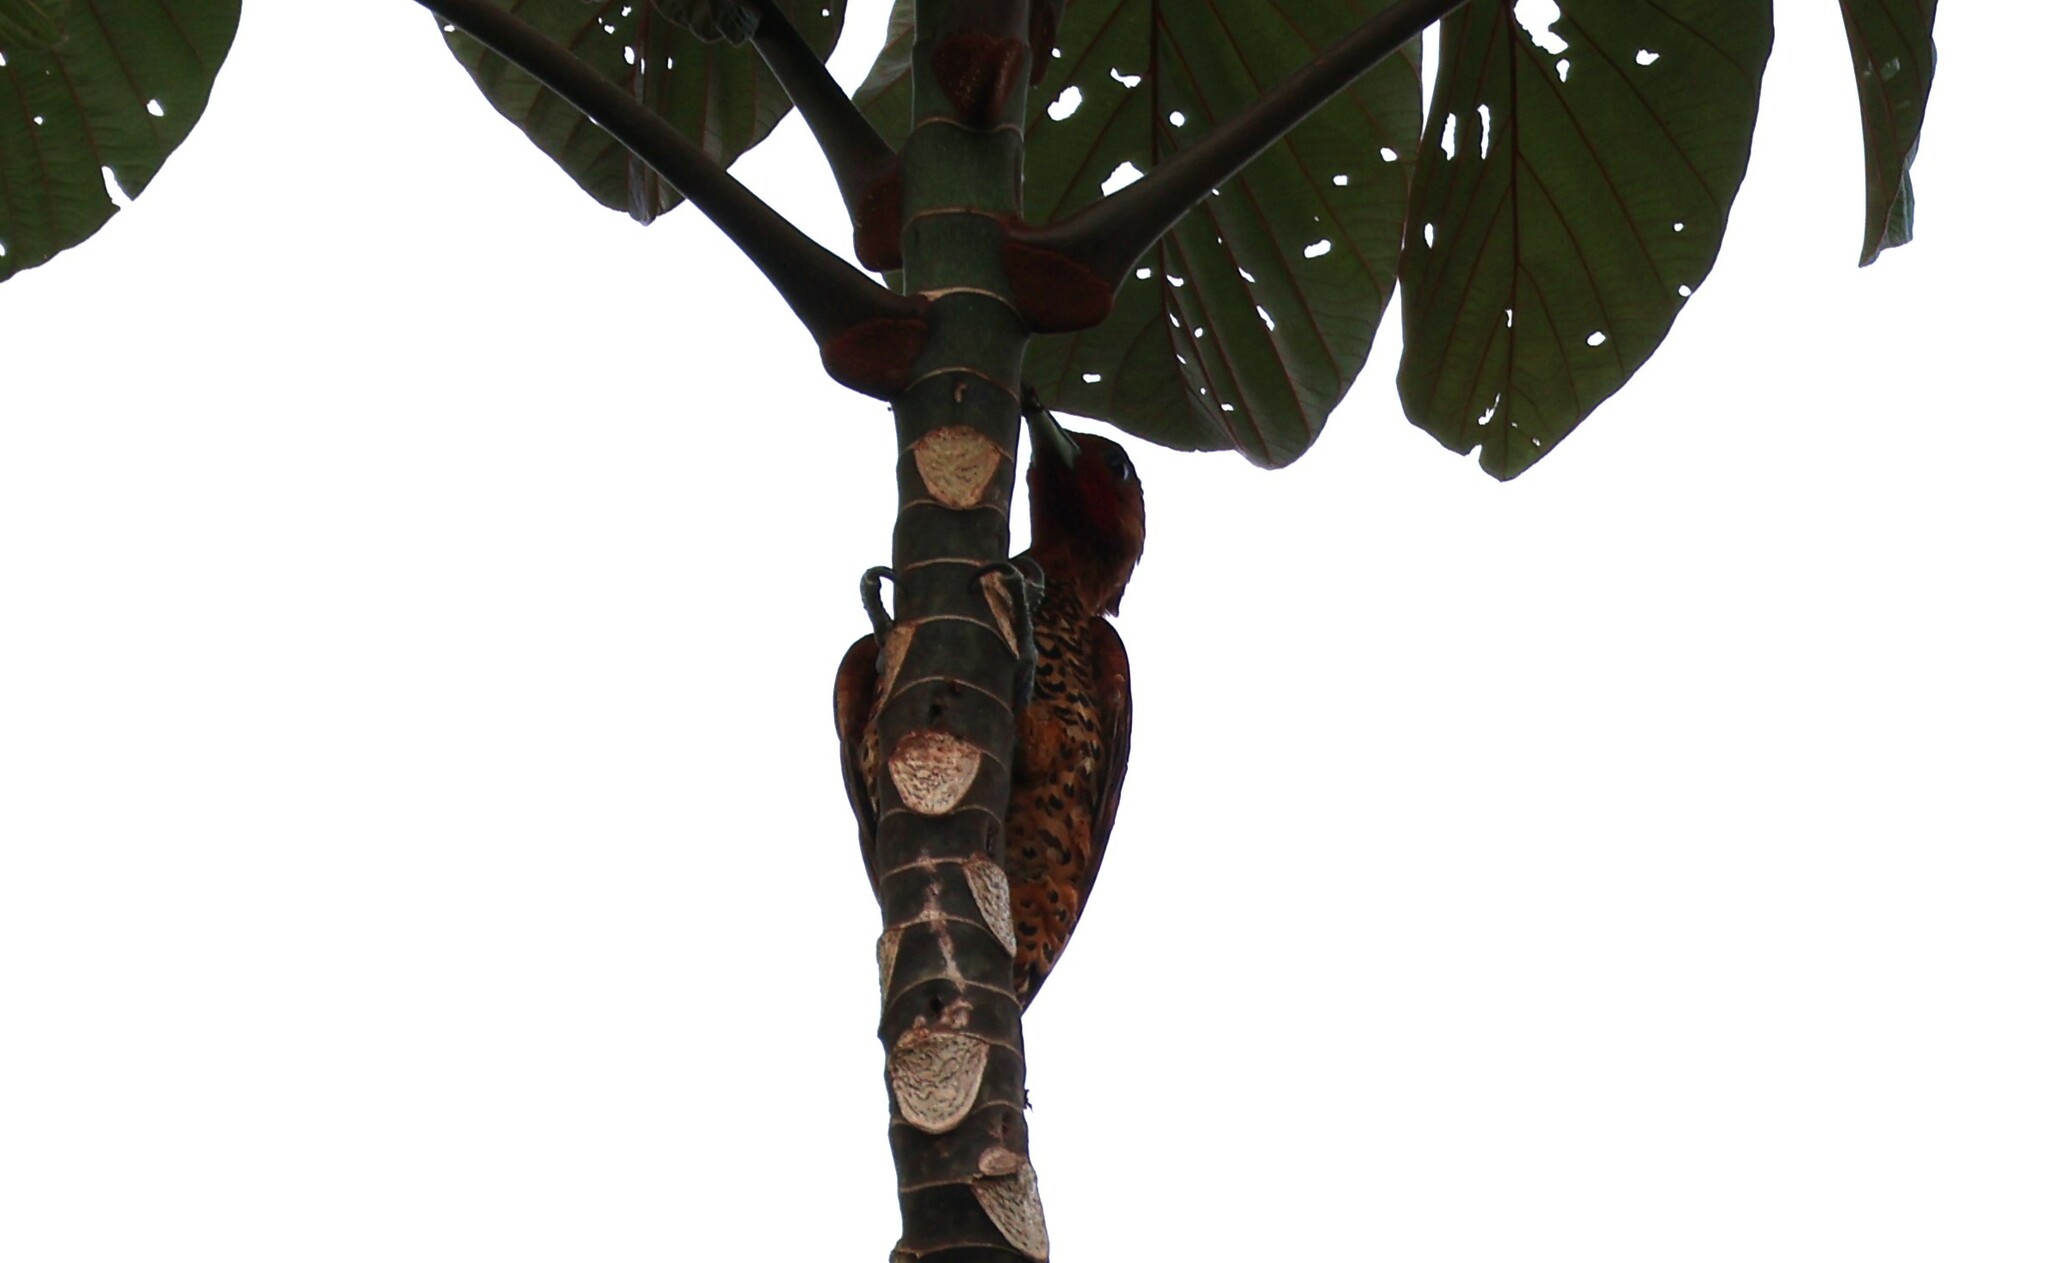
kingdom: Animalia
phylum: Chordata
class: Aves
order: Piciformes
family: Picidae
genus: Celeus
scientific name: Celeus loricatus
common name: Cinnamon woodpecker
